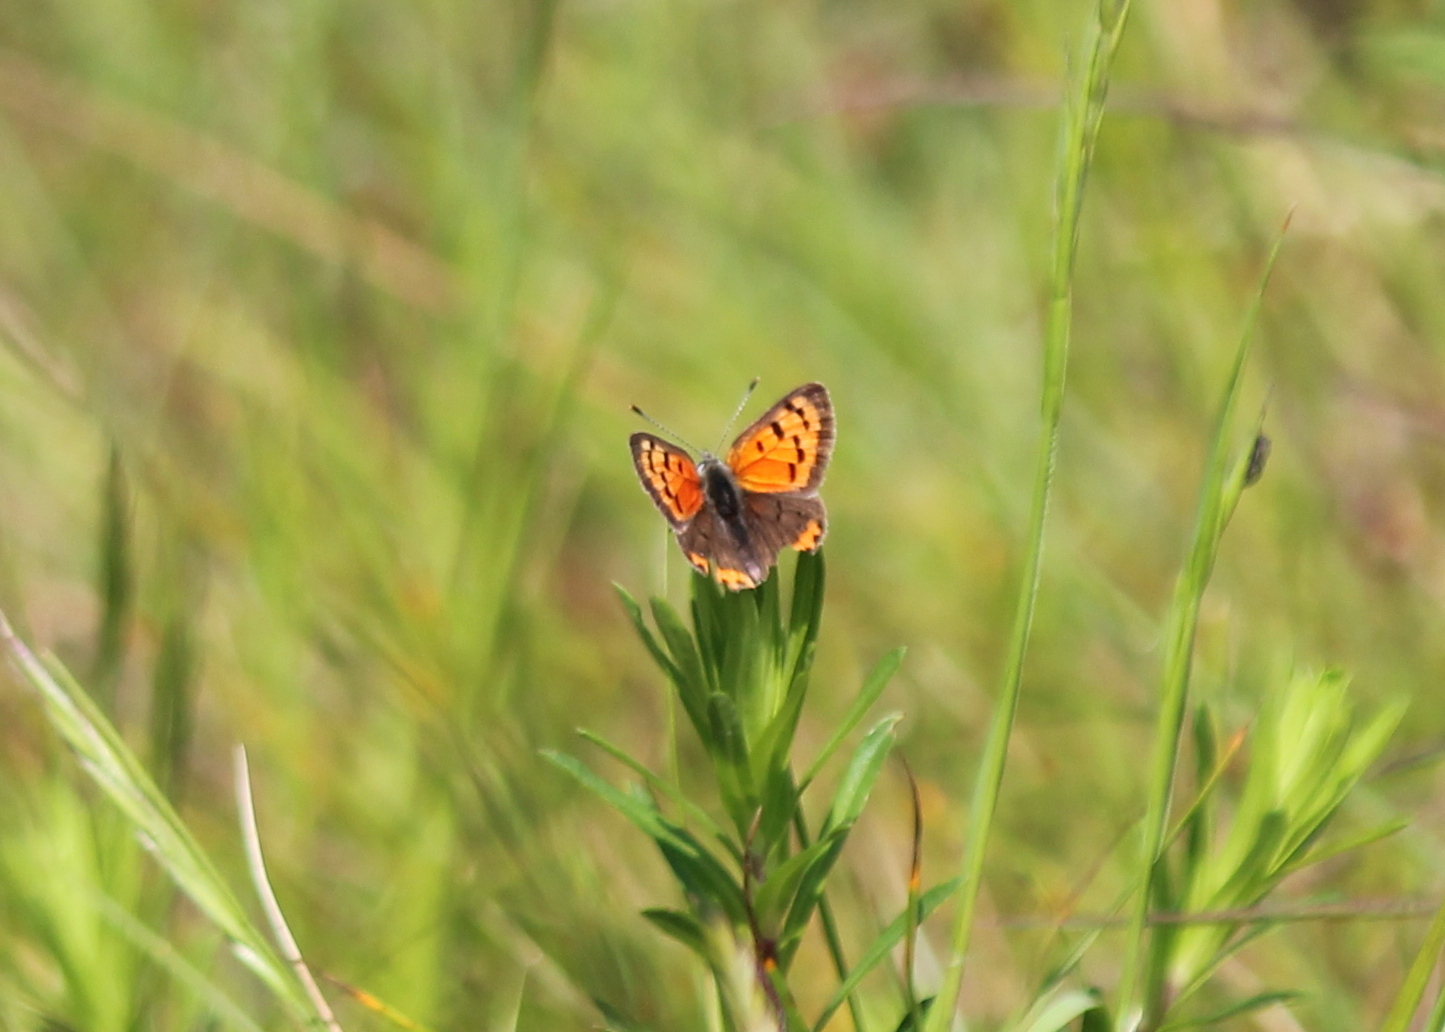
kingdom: Animalia
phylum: Arthropoda
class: Insecta
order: Lepidoptera
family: Lycaenidae
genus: Lycaena
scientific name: Lycaena hypophlaeas
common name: American copper
